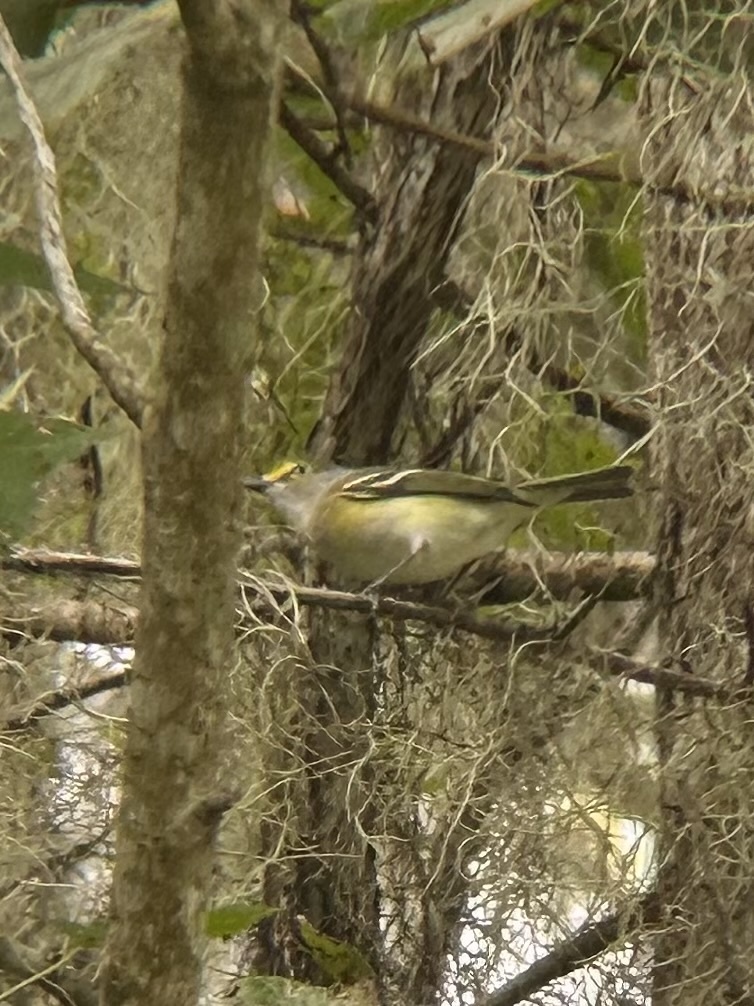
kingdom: Animalia
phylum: Chordata
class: Aves
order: Passeriformes
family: Vireonidae
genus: Vireo
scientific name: Vireo griseus
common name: White-eyed vireo
